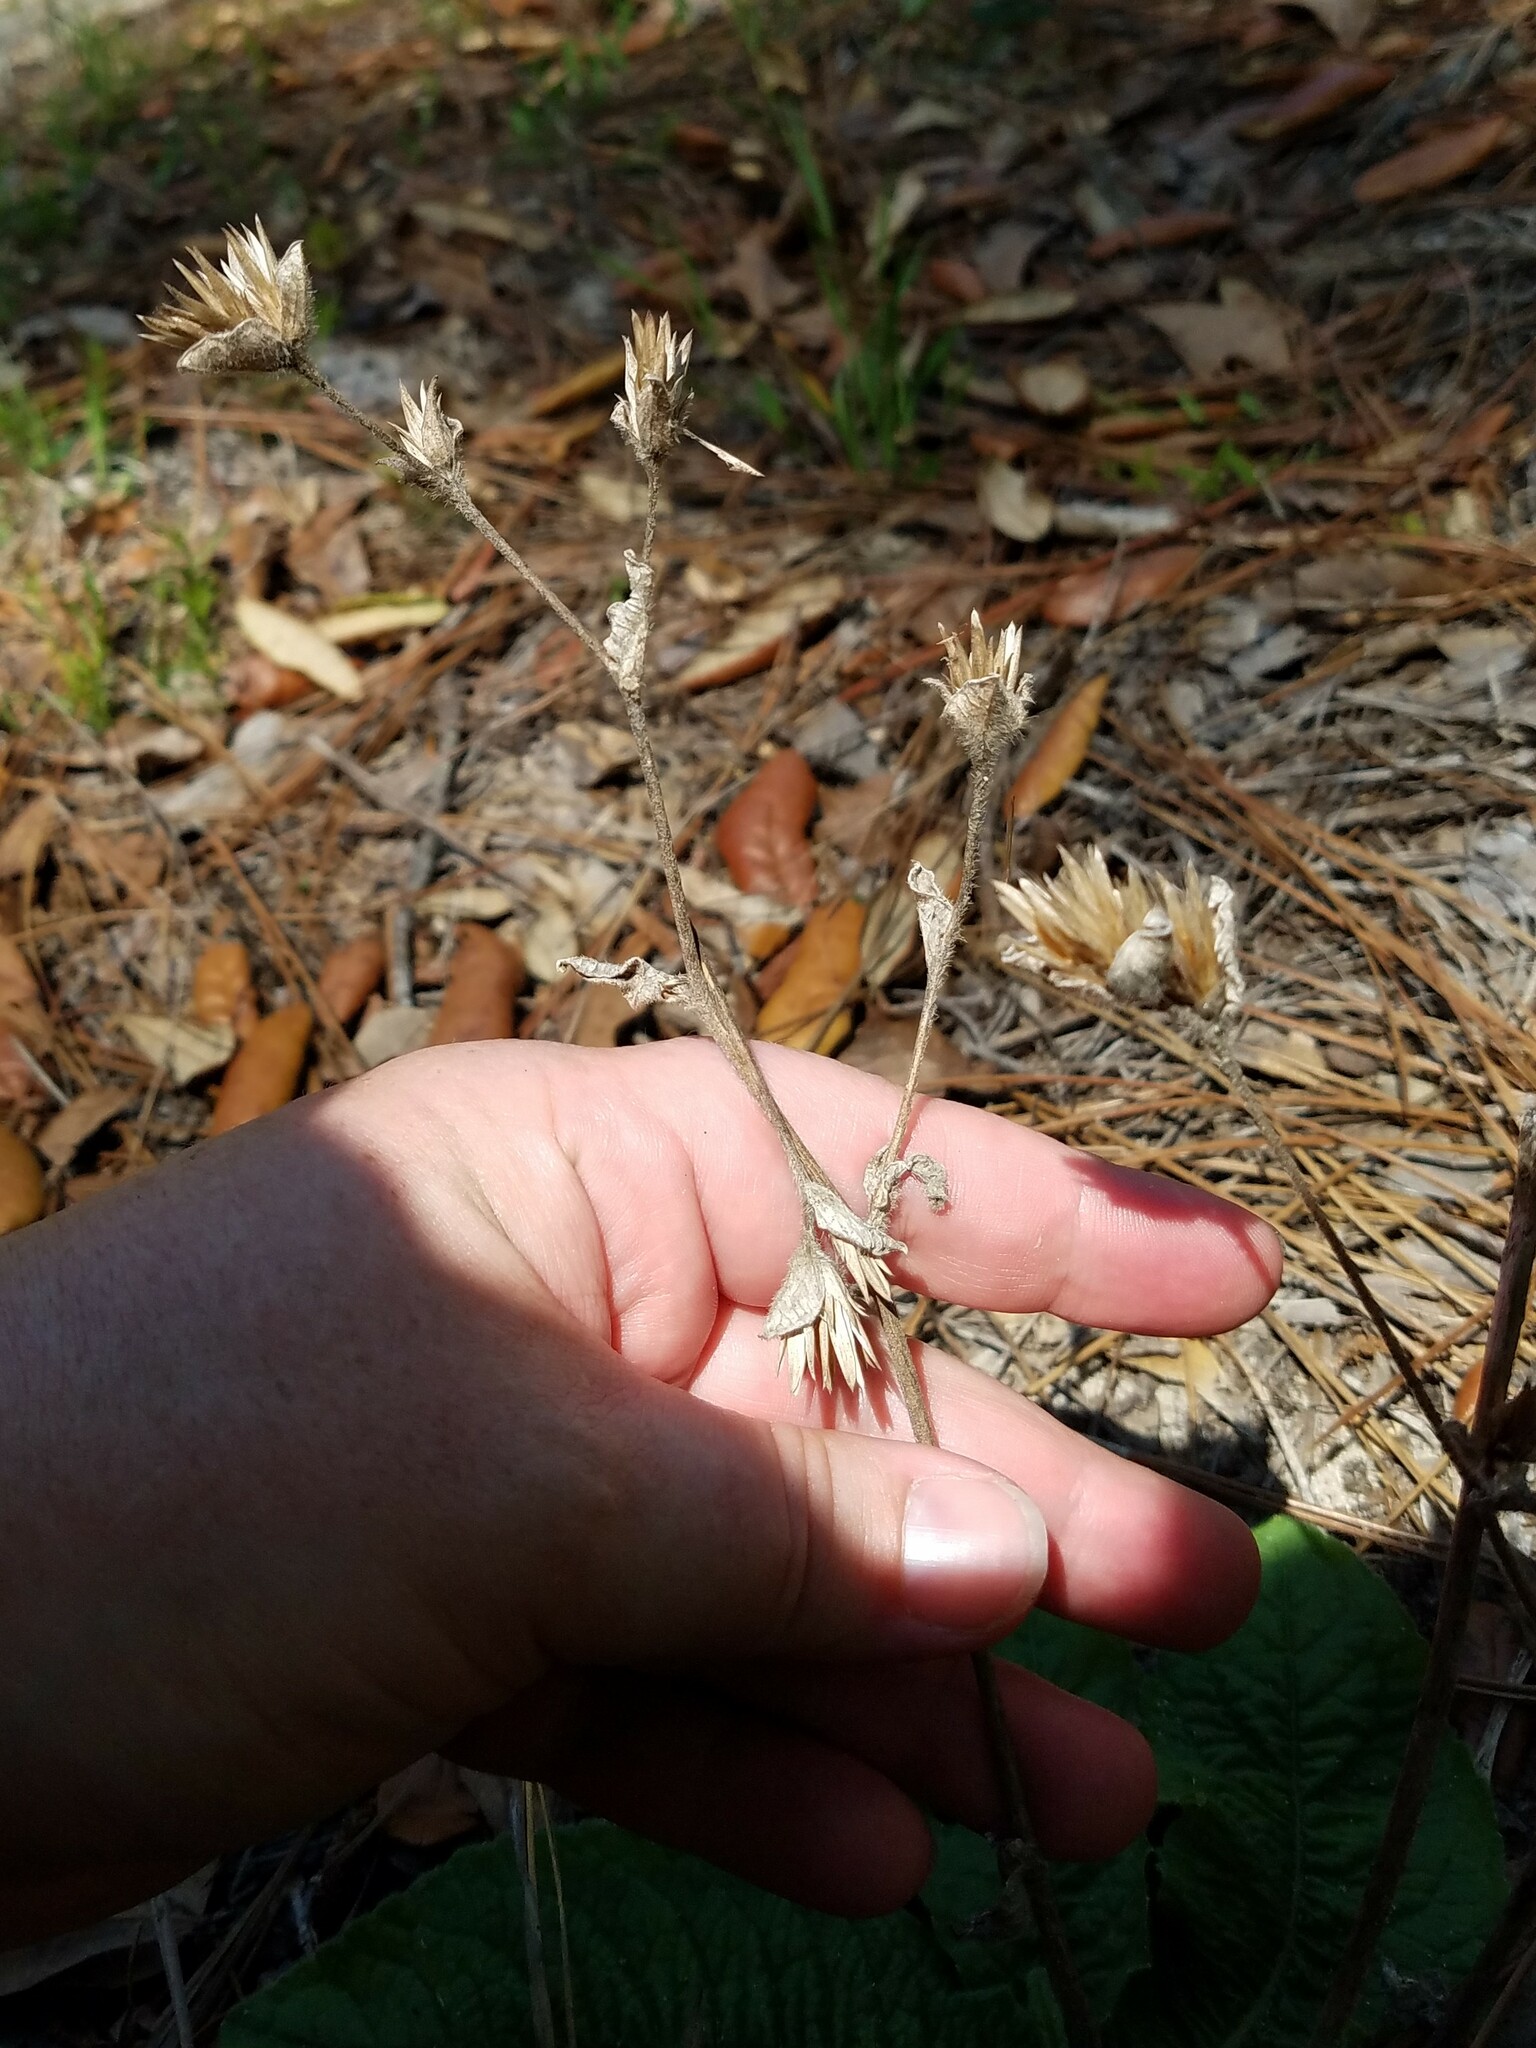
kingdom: Plantae
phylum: Tracheophyta
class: Magnoliopsida
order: Asterales
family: Asteraceae
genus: Elephantopus
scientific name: Elephantopus tomentosus
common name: Tobacco-weed
